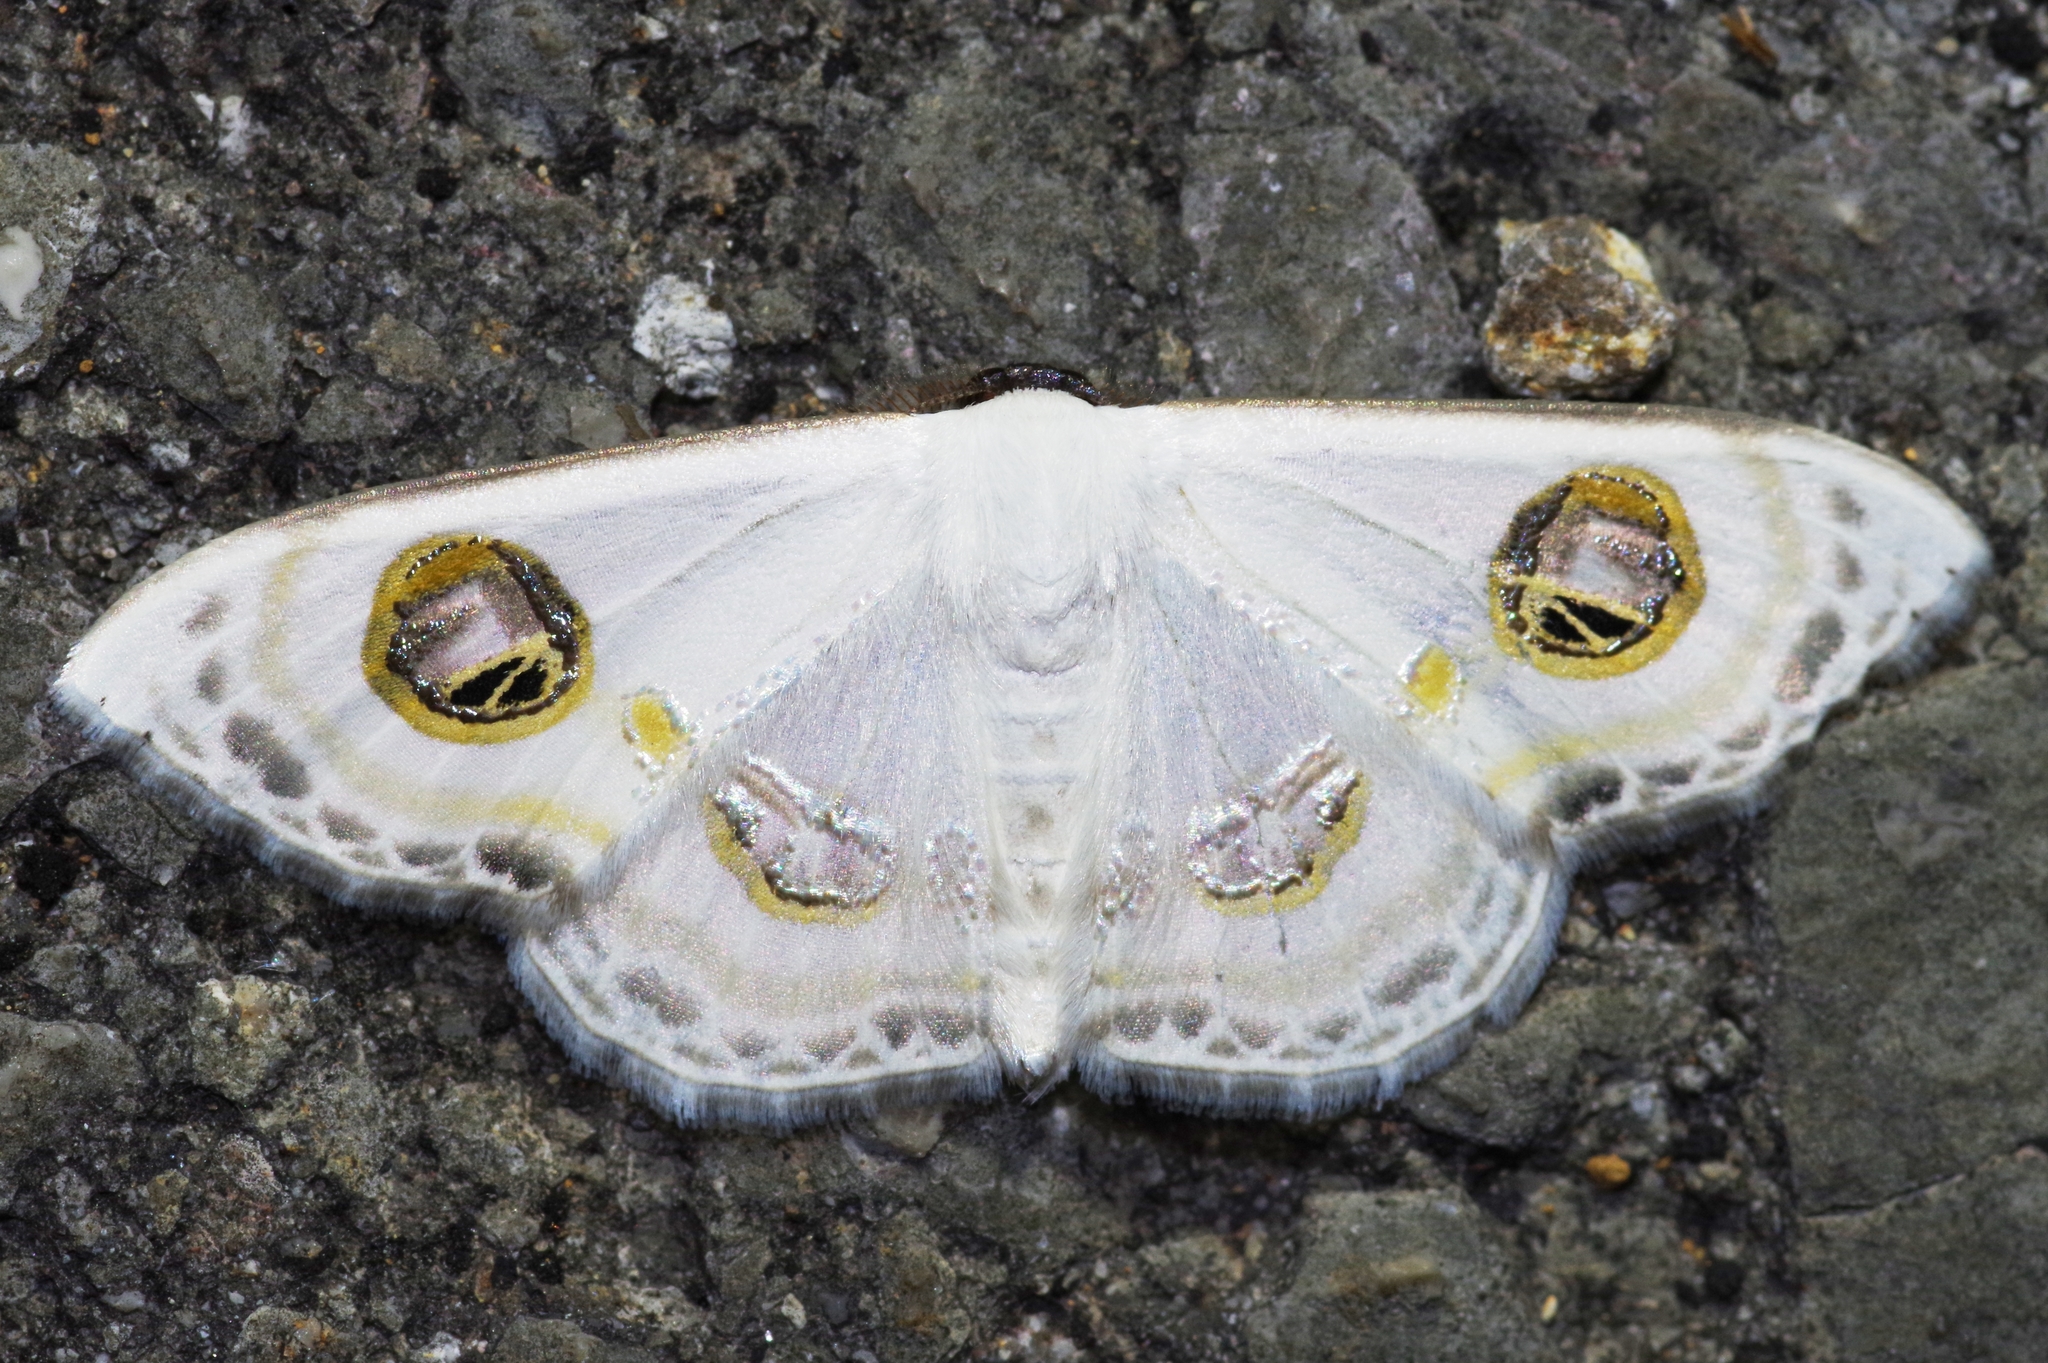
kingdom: Animalia
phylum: Arthropoda
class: Insecta
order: Lepidoptera
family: Geometridae
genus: Problepsis
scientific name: Problepsis albidior
